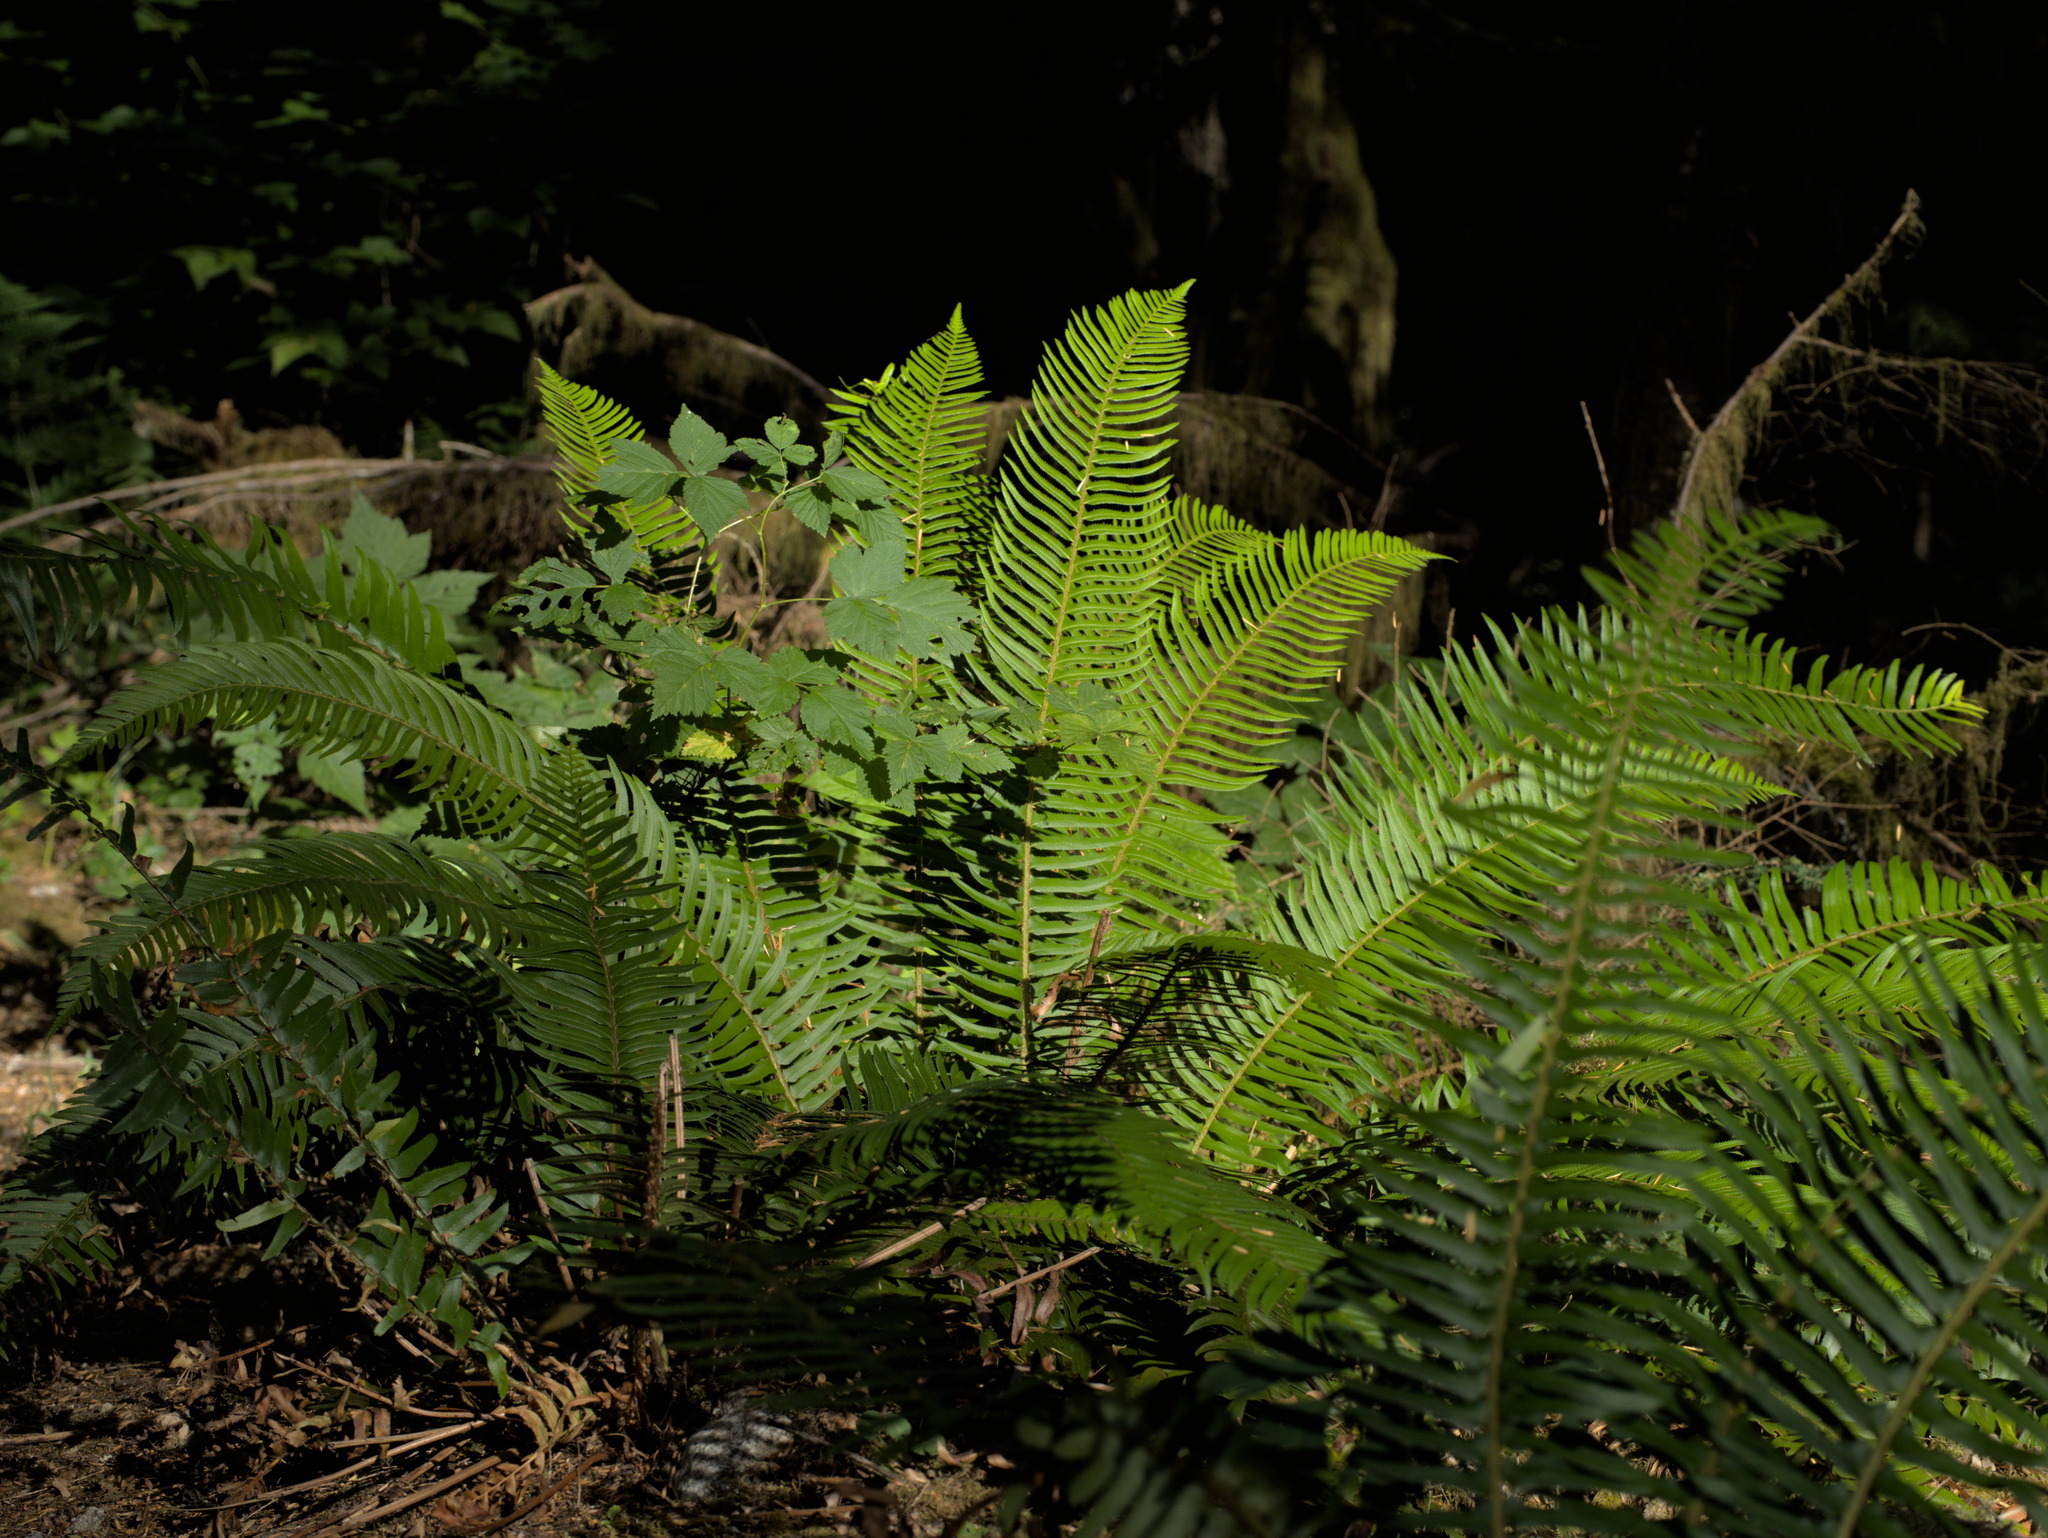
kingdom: Plantae
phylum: Tracheophyta
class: Polypodiopsida
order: Polypodiales
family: Dryopteridaceae
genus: Polystichum
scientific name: Polystichum munitum
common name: Western sword-fern
